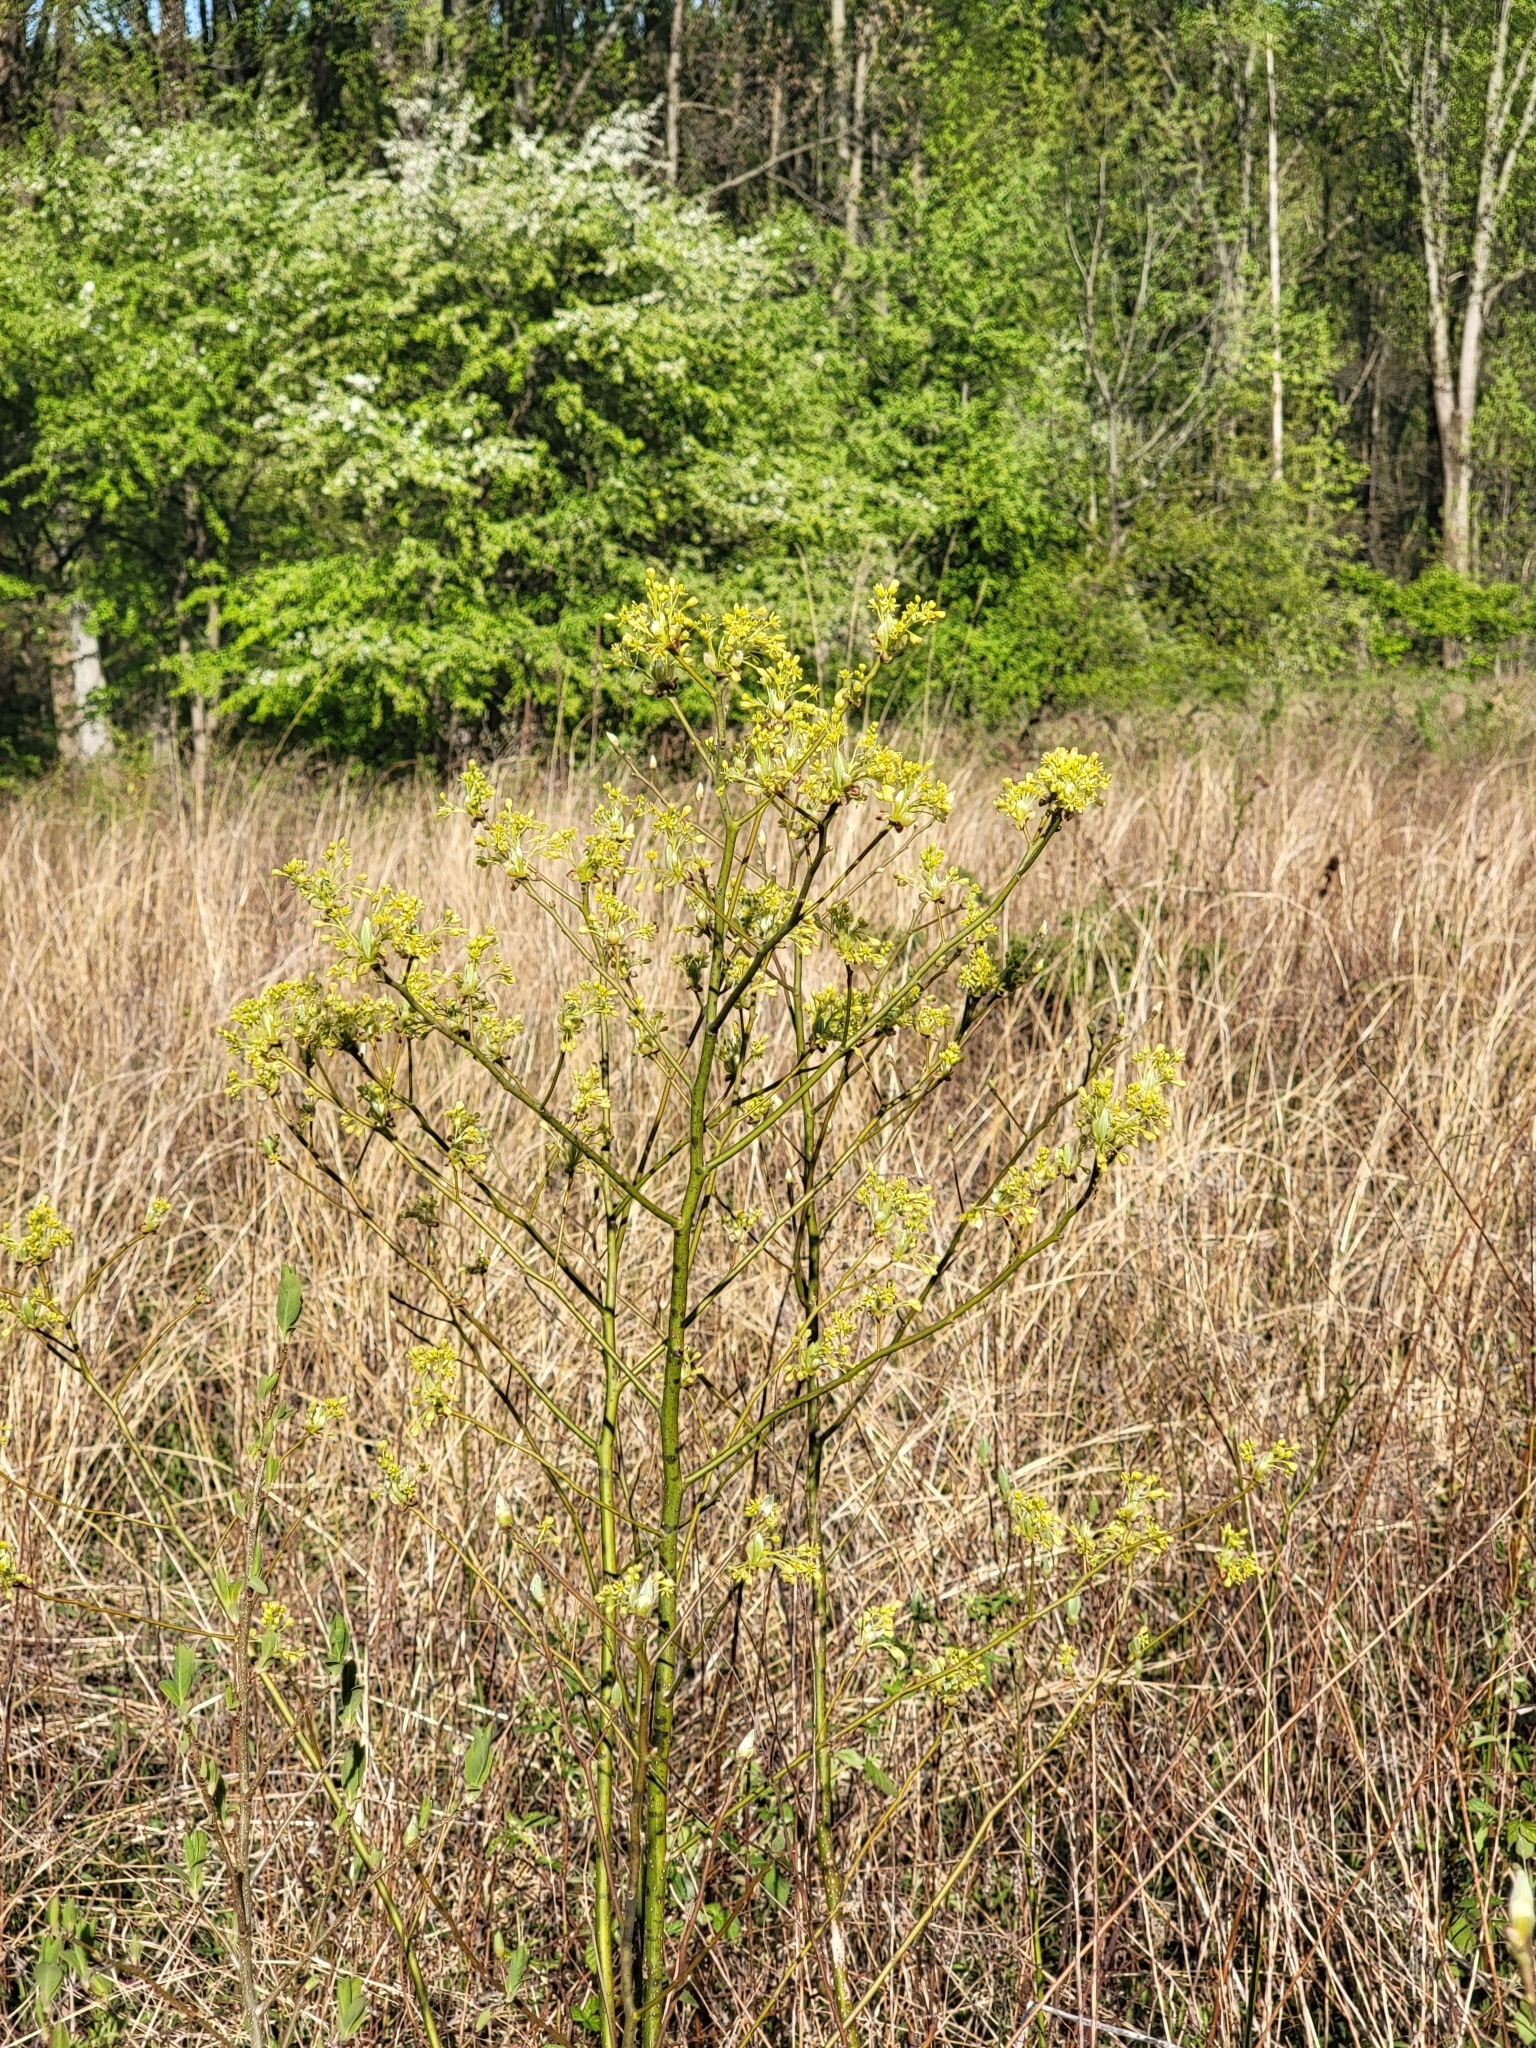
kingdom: Plantae
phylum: Tracheophyta
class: Magnoliopsida
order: Laurales
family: Lauraceae
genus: Sassafras
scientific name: Sassafras albidum
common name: Sassafras
